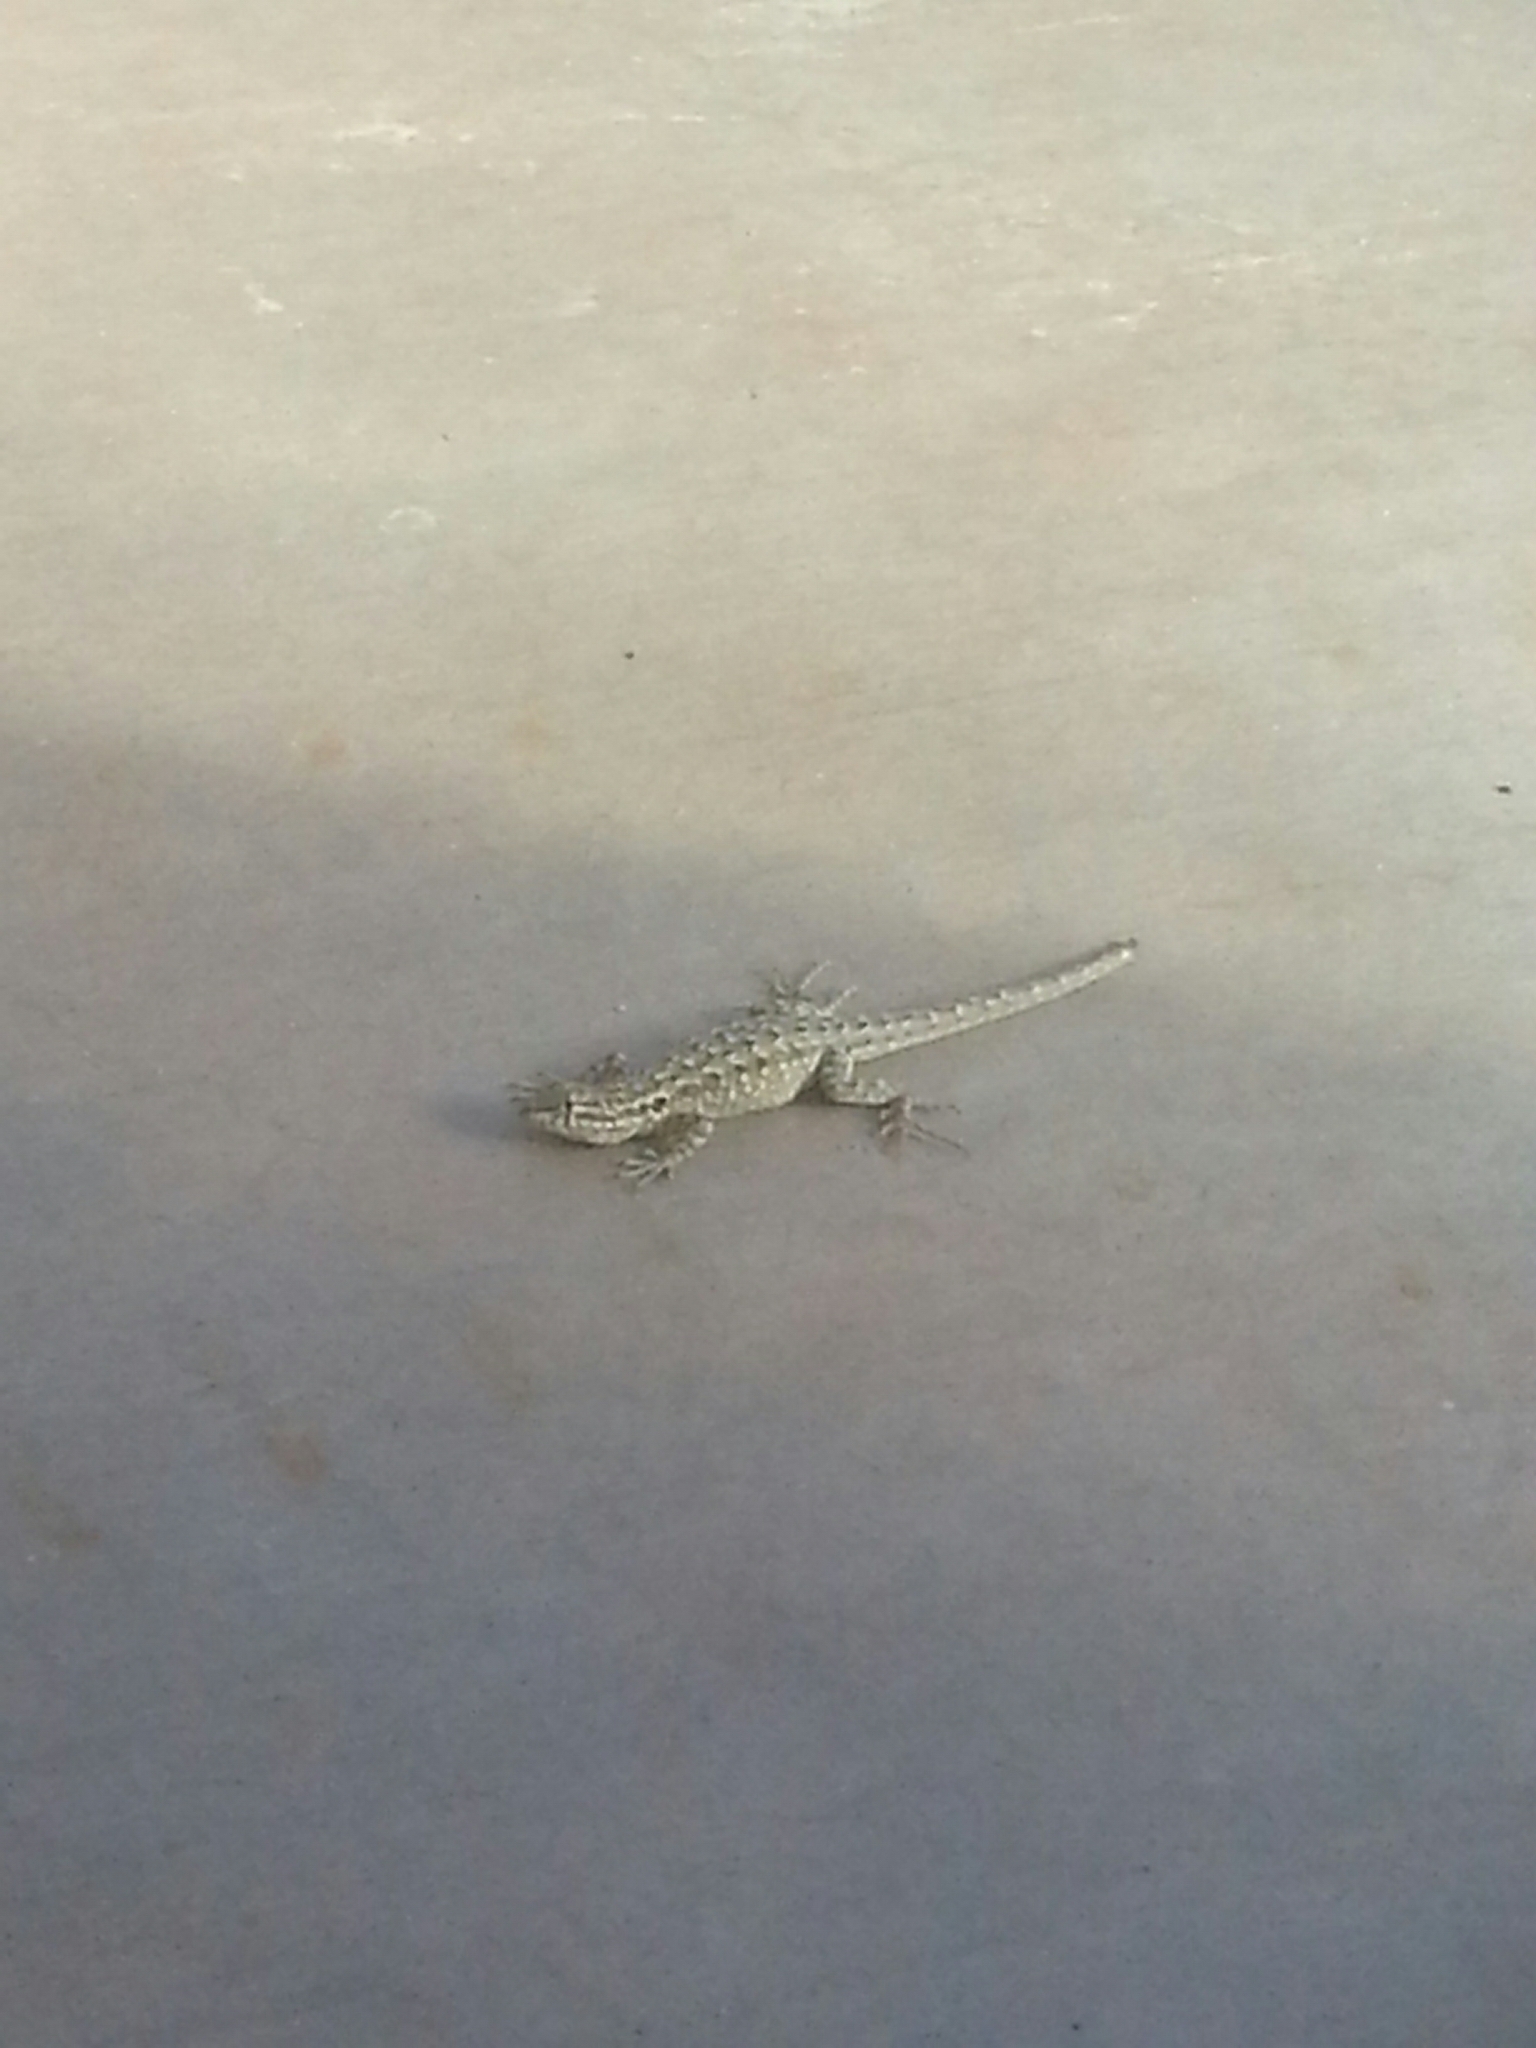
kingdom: Animalia
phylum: Chordata
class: Squamata
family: Phrynosomatidae
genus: Uta
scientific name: Uta stansburiana
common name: Side-blotched lizard
